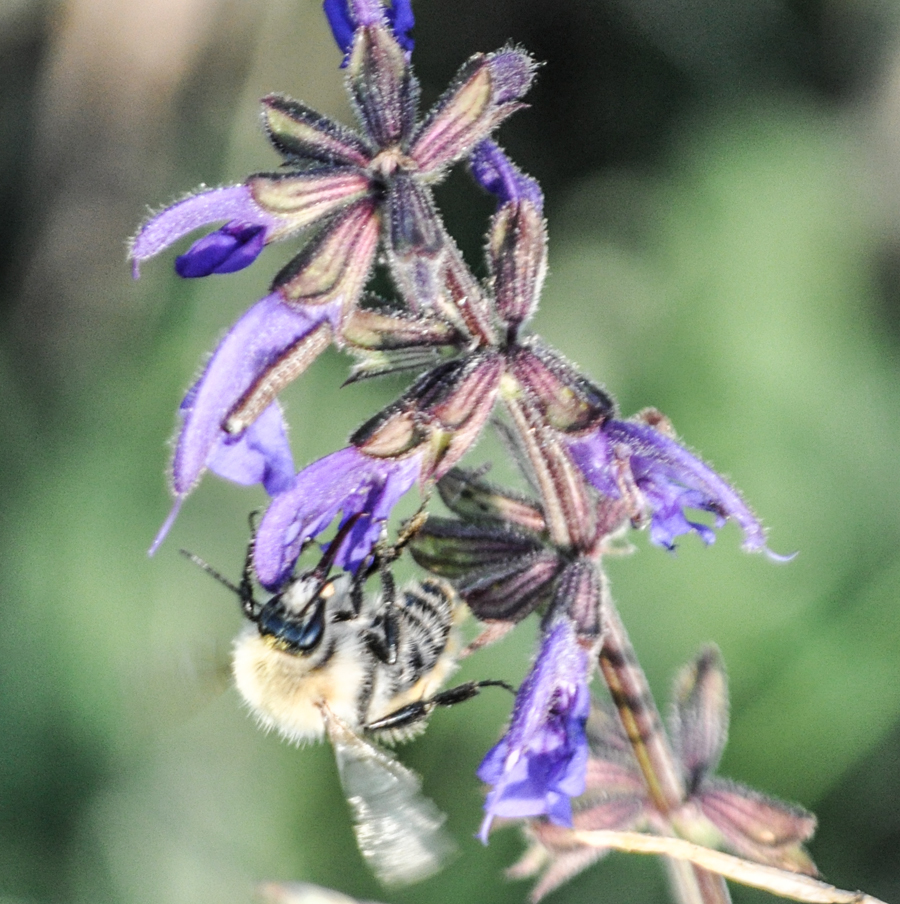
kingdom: Plantae
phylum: Tracheophyta
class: Magnoliopsida
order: Lamiales
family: Lamiaceae
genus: Salvia
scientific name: Salvia pratensis
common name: Meadow sage
